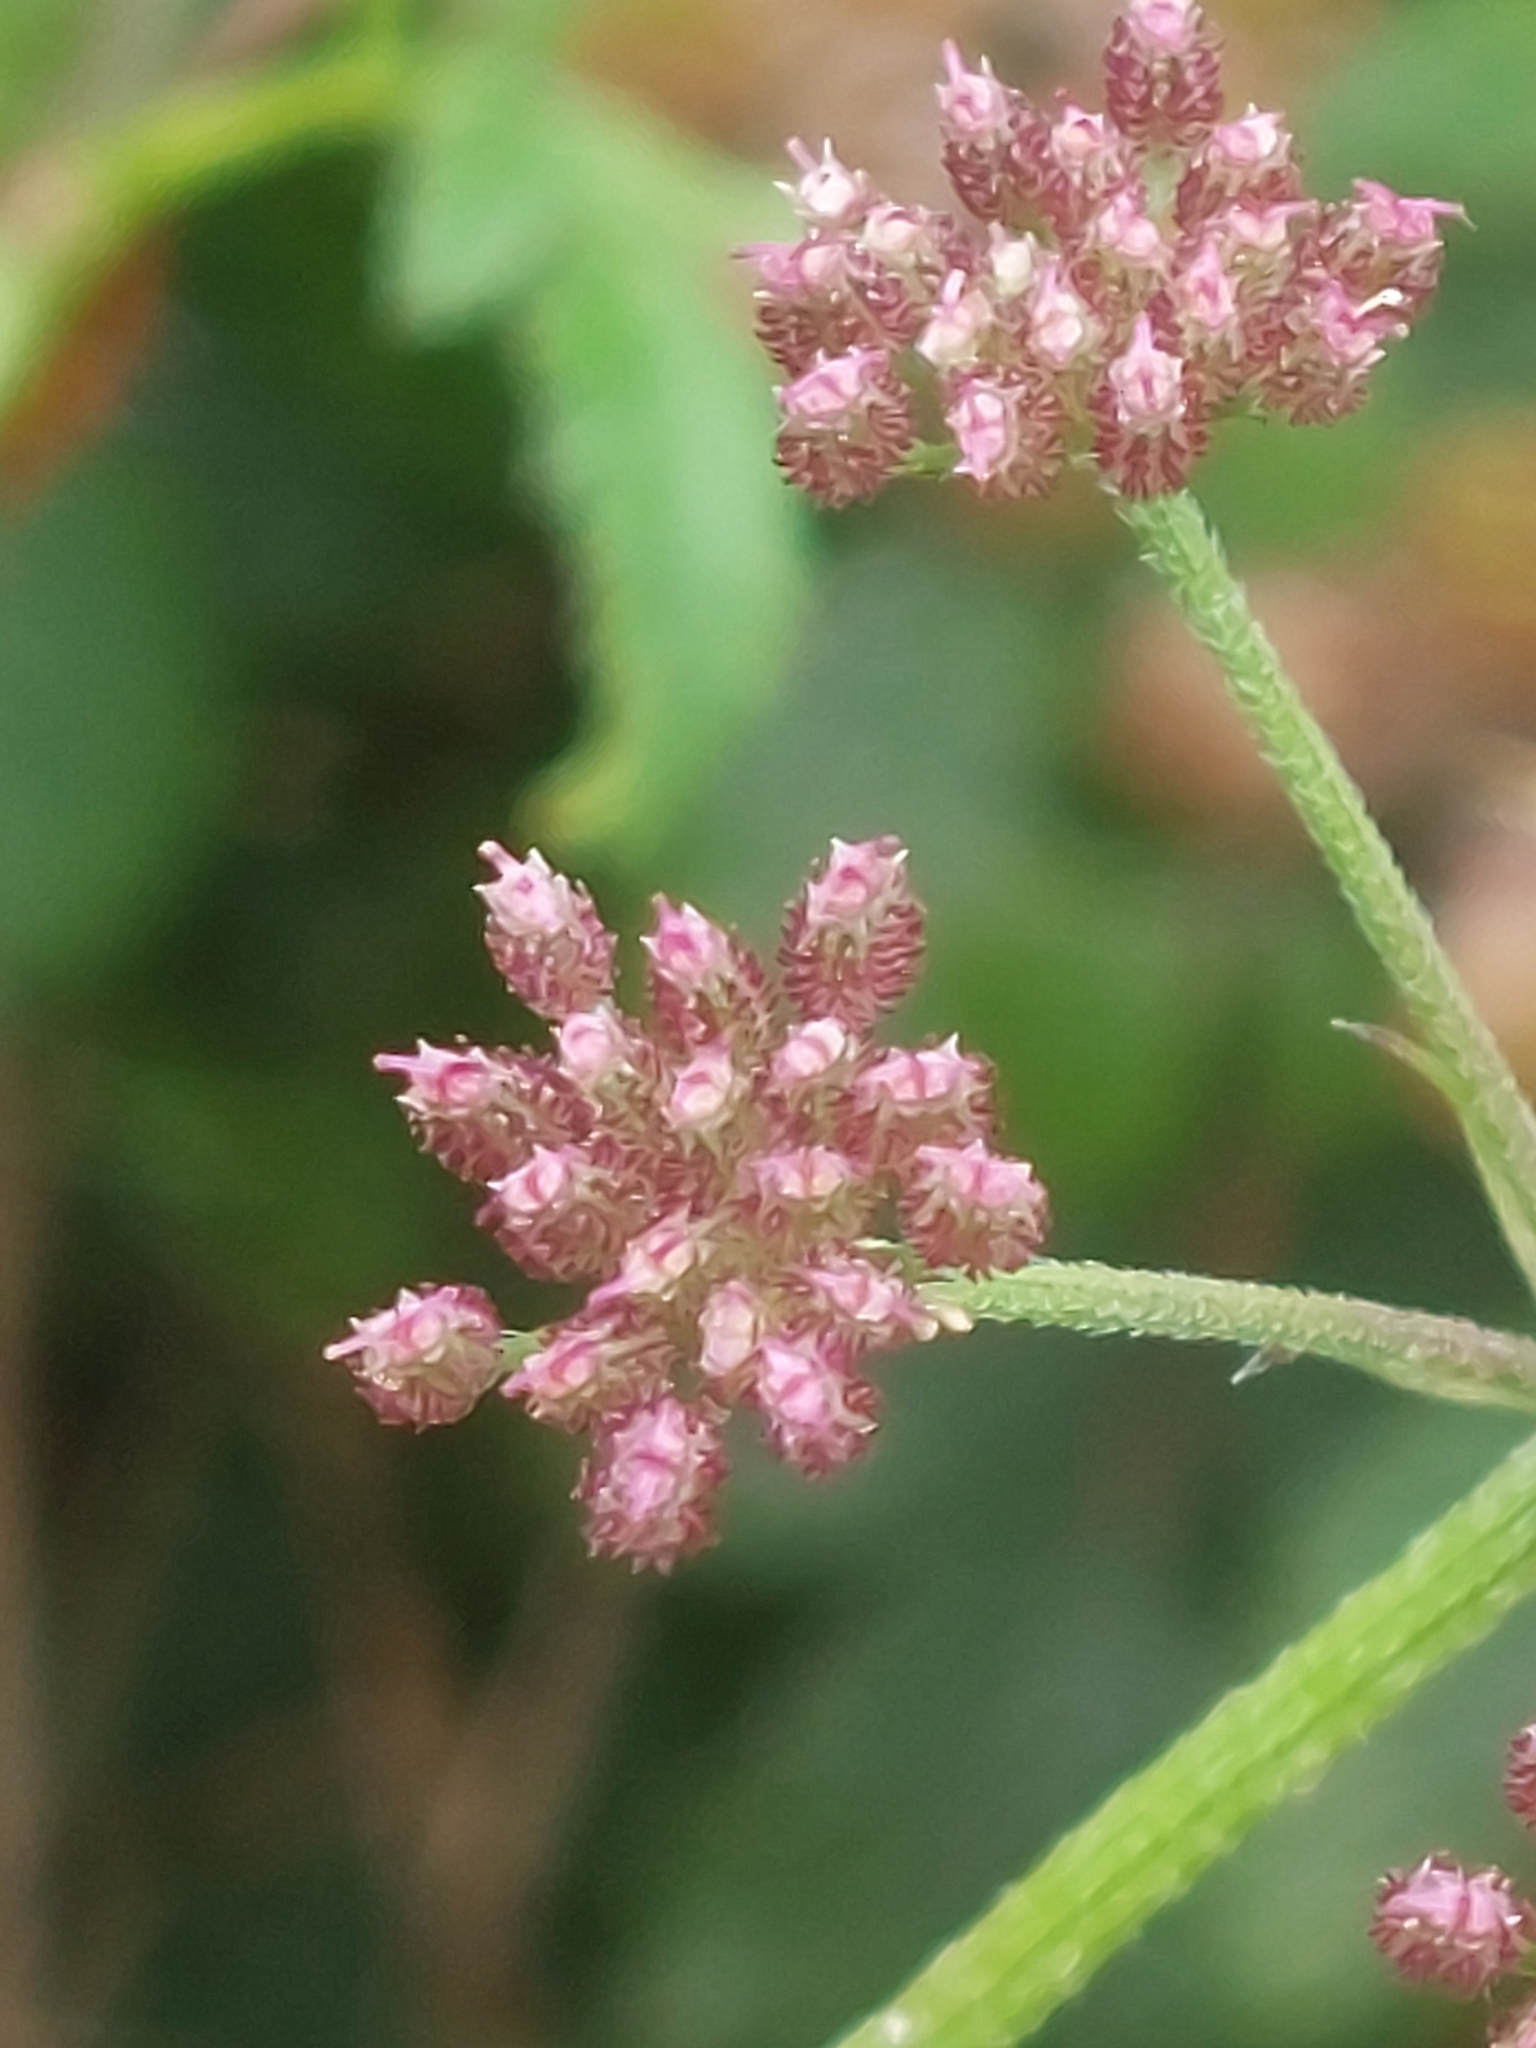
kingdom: Plantae
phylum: Tracheophyta
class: Magnoliopsida
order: Apiales
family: Apiaceae
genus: Torilis
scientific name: Torilis japonica
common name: Upright hedge-parsley
